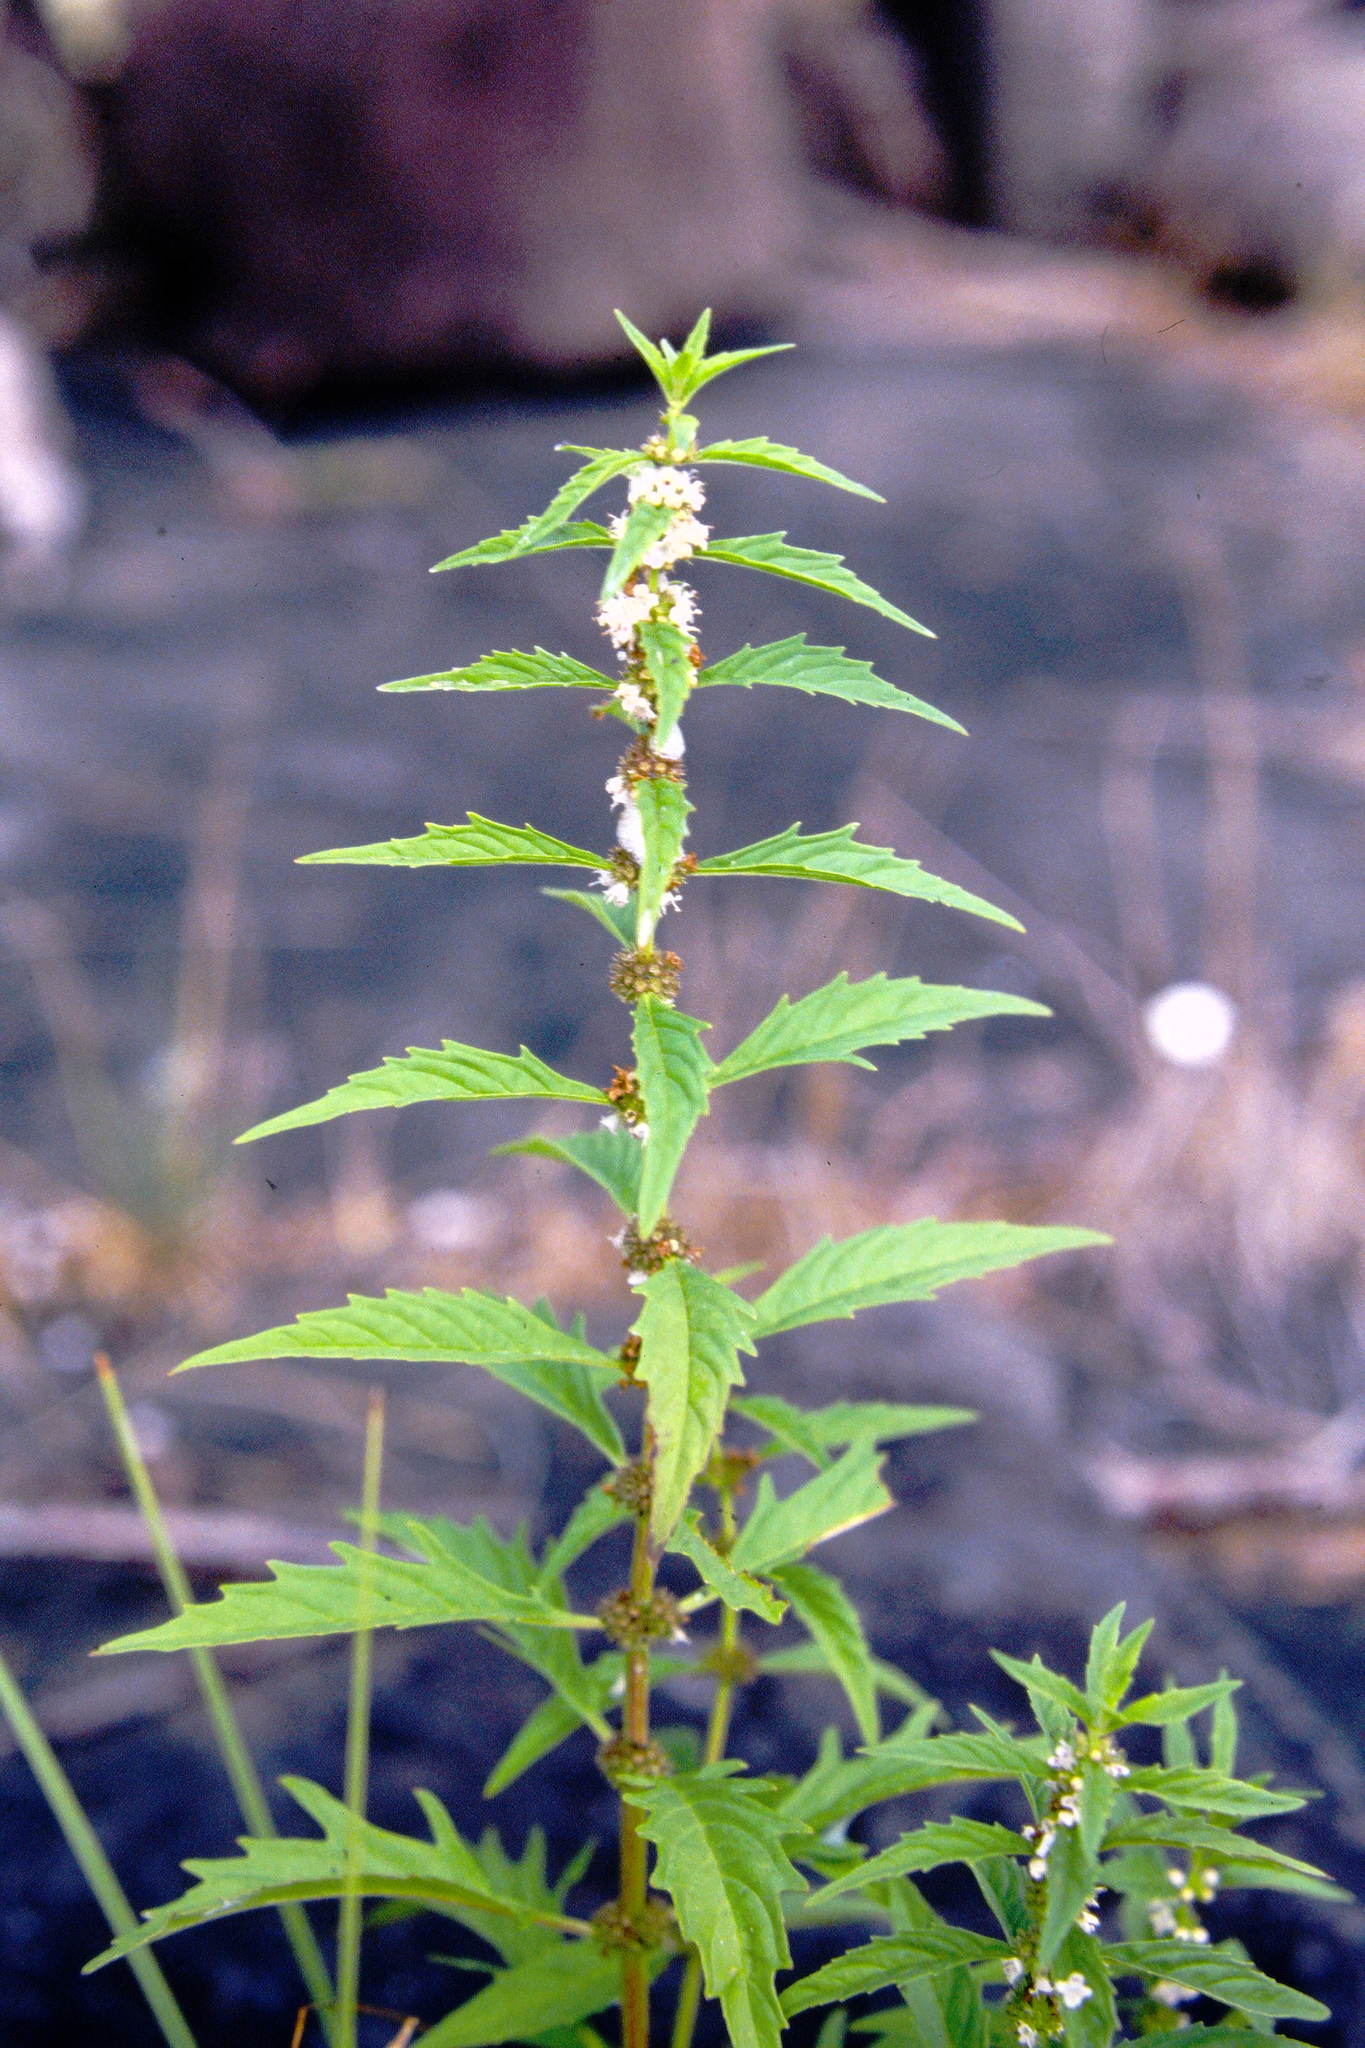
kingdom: Plantae
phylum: Tracheophyta
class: Magnoliopsida
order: Lamiales
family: Lamiaceae
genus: Lycopus
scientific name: Lycopus americanus
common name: American bugleweed
